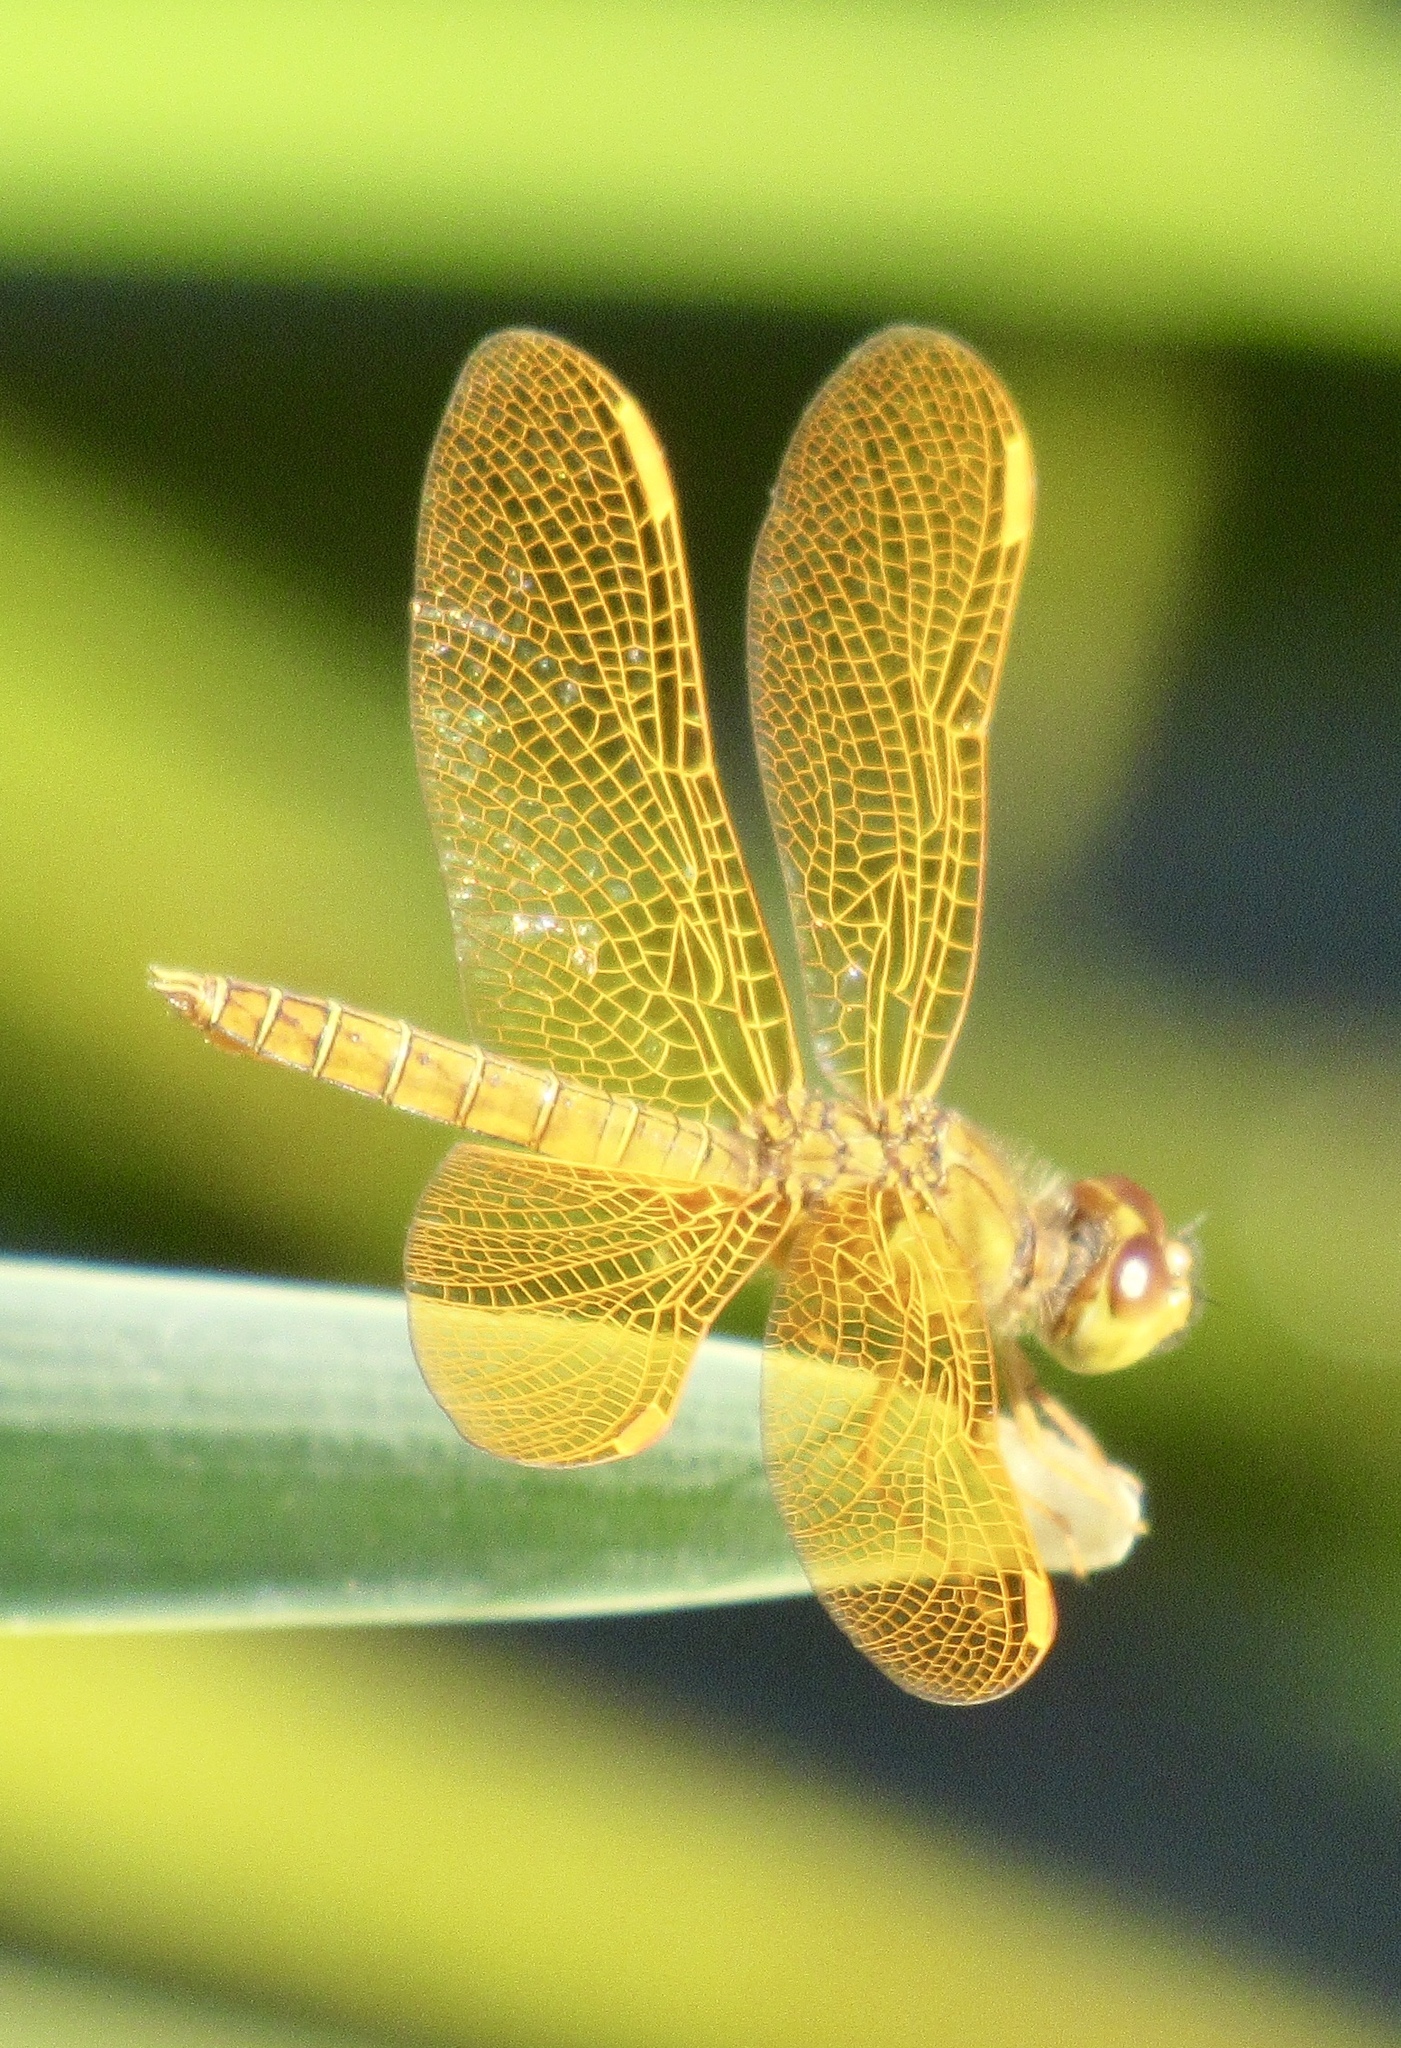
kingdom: Animalia
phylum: Arthropoda
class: Insecta
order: Odonata
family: Libellulidae
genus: Perithemis
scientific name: Perithemis intensa
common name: Mexican amberwing
